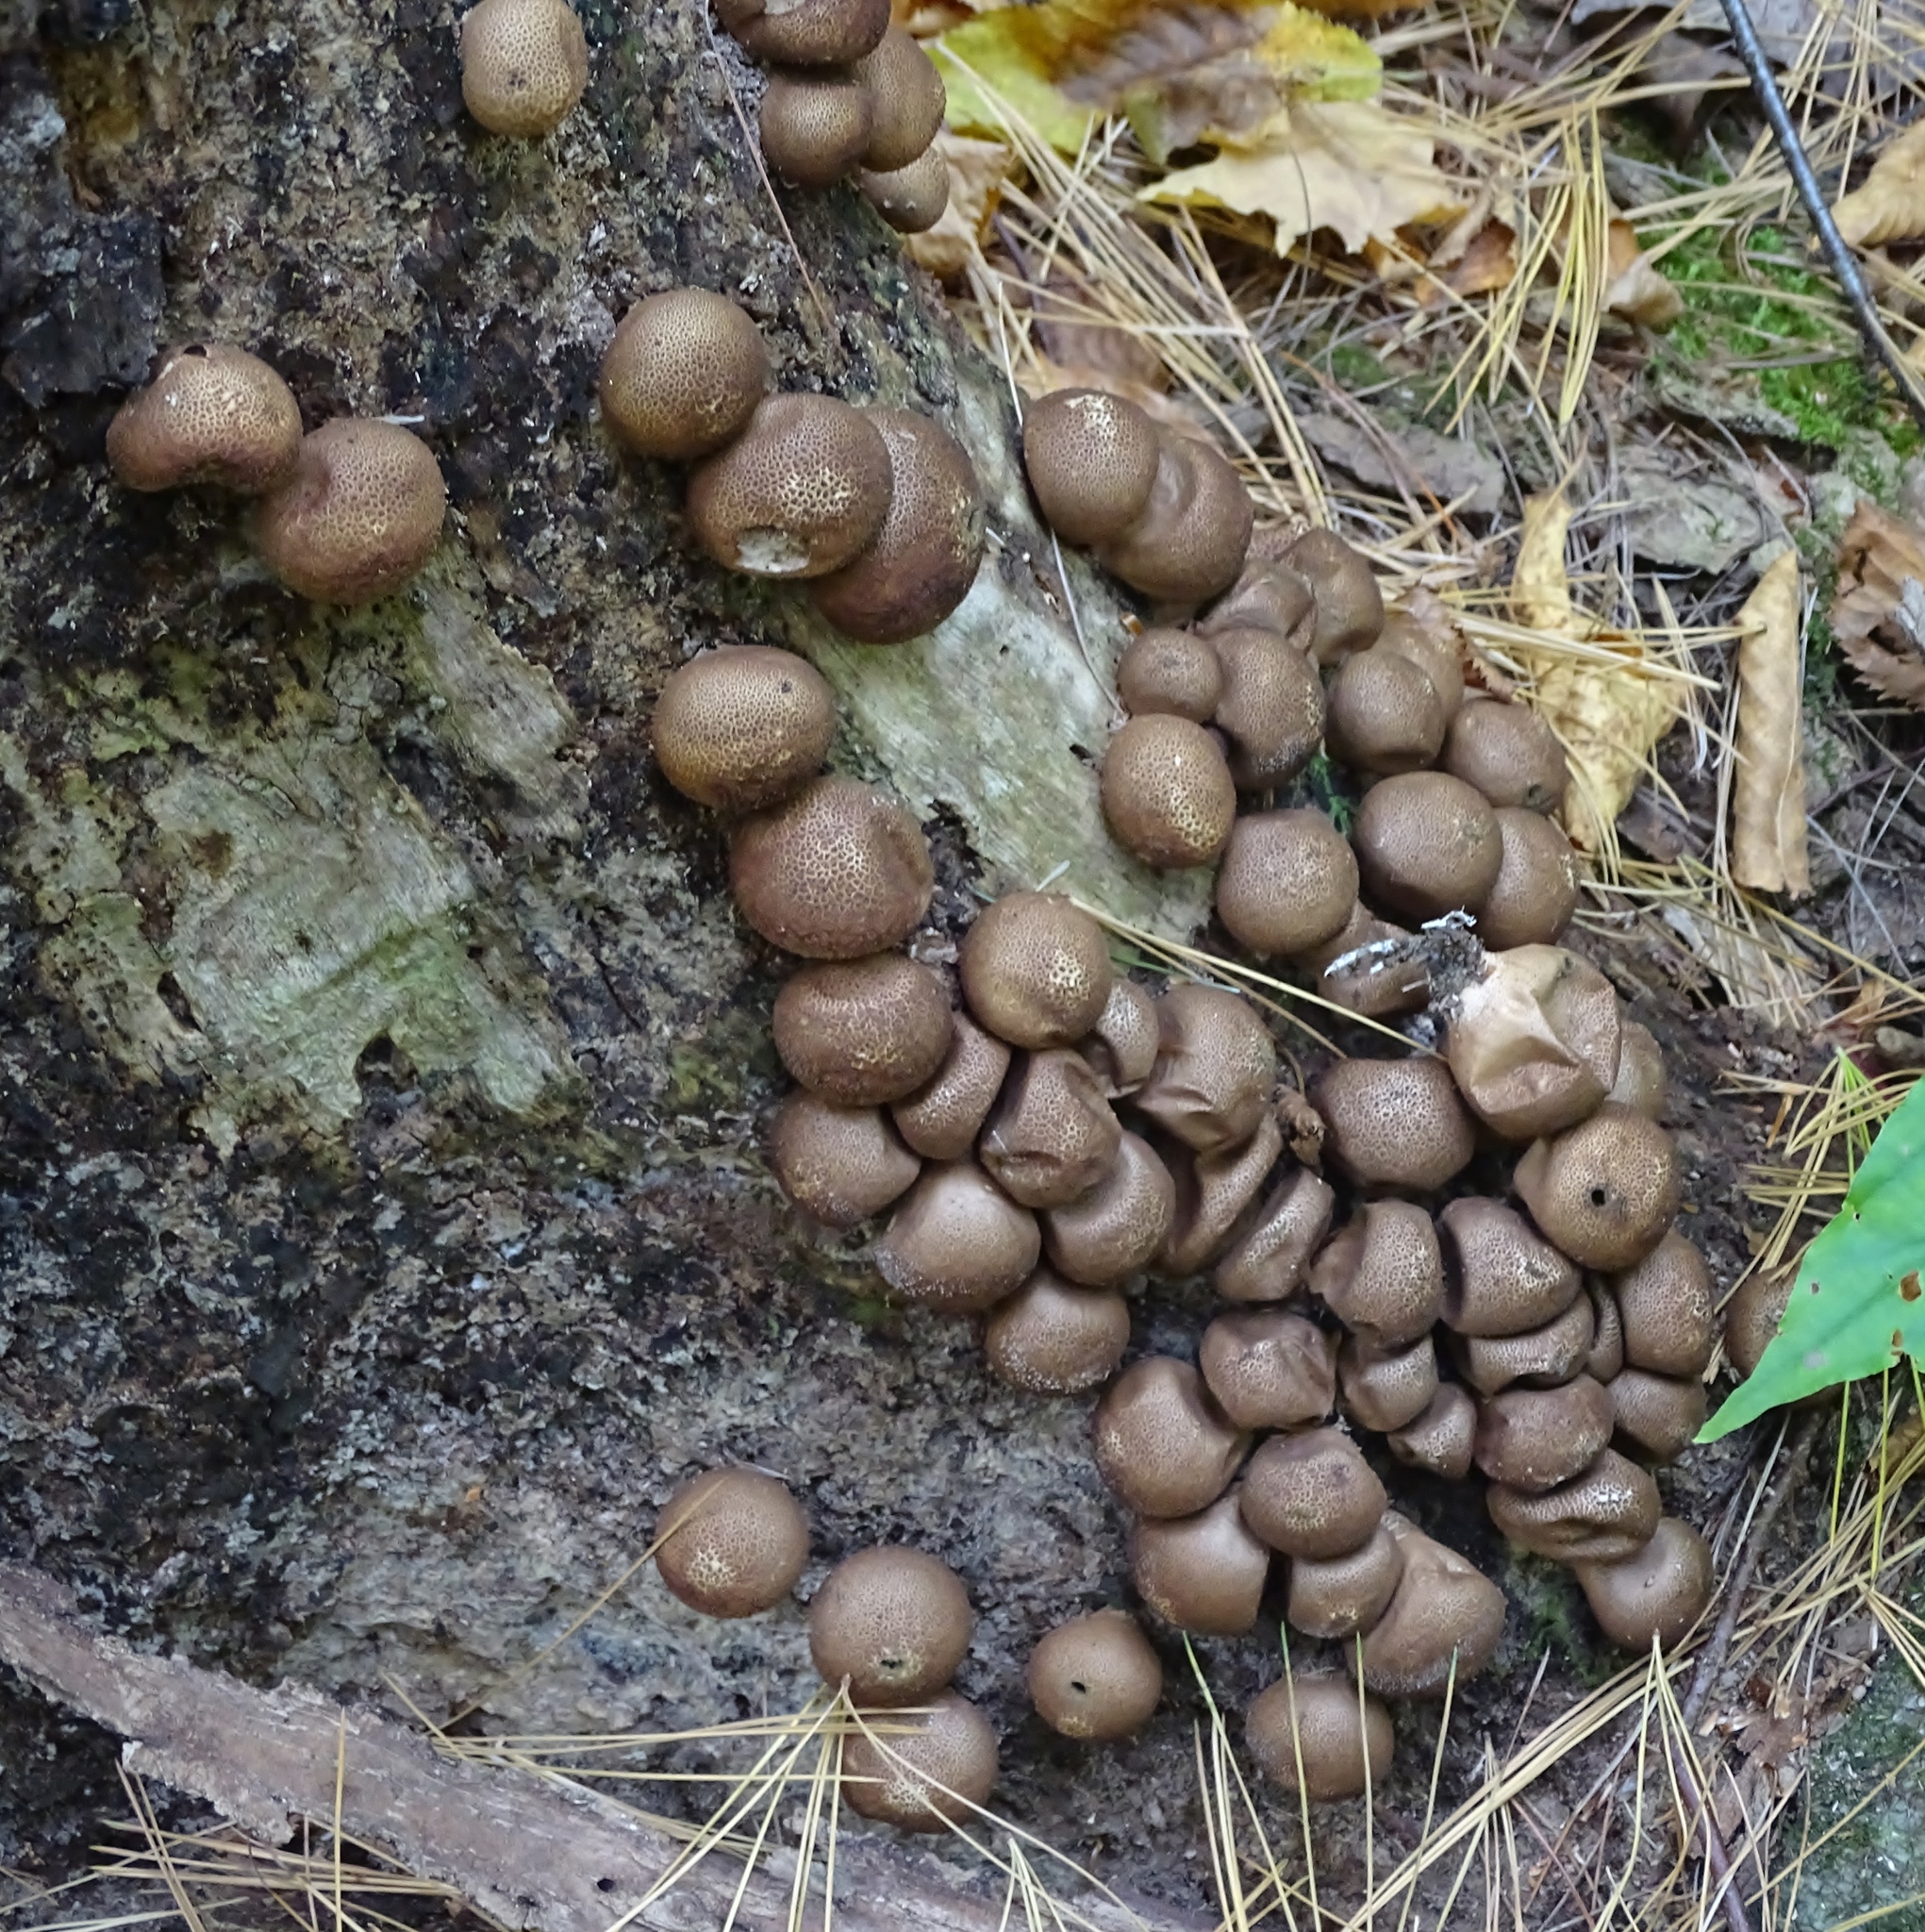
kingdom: Fungi
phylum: Basidiomycota
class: Agaricomycetes
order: Agaricales
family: Lycoperdaceae
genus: Apioperdon
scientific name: Apioperdon pyriforme
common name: Pear-shaped puffball
